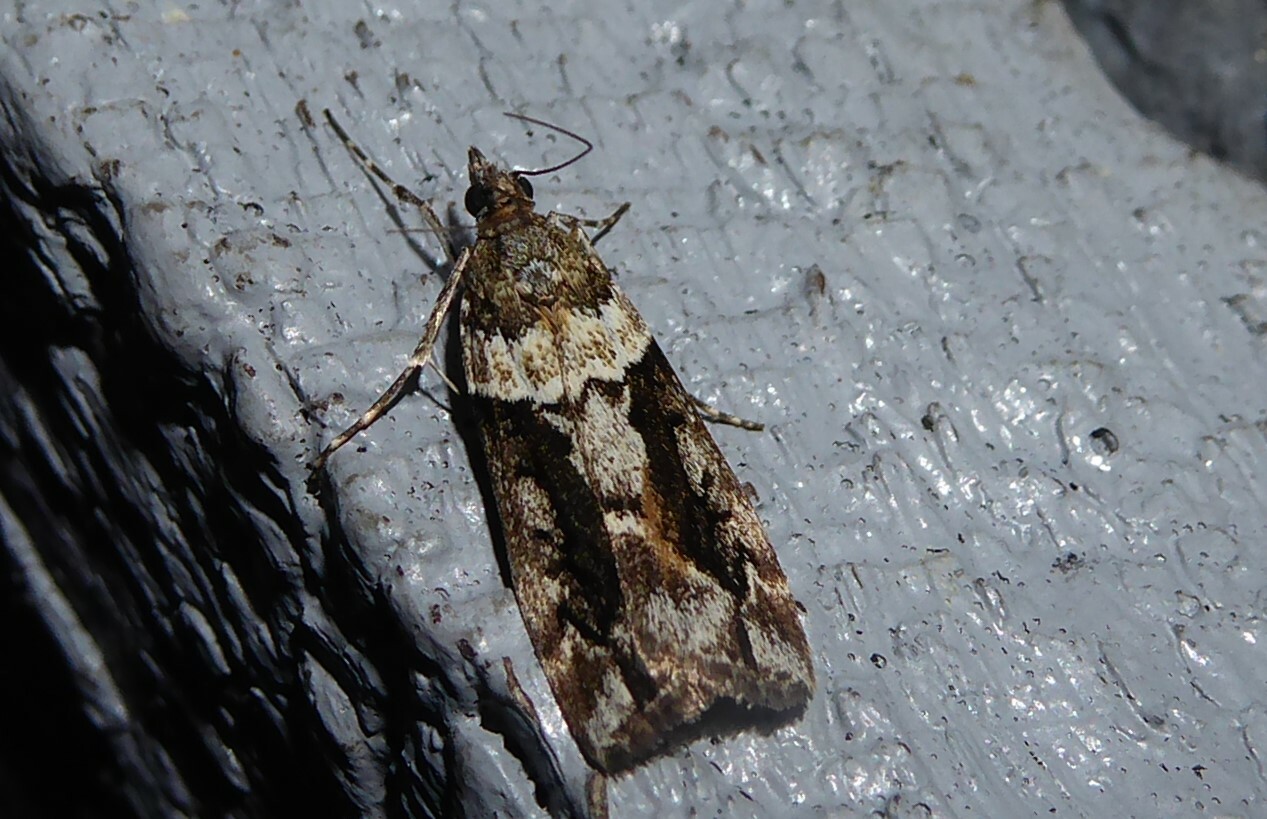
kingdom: Animalia
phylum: Arthropoda
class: Insecta
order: Lepidoptera
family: Crambidae
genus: Eudonia
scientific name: Eudonia submarginalis
